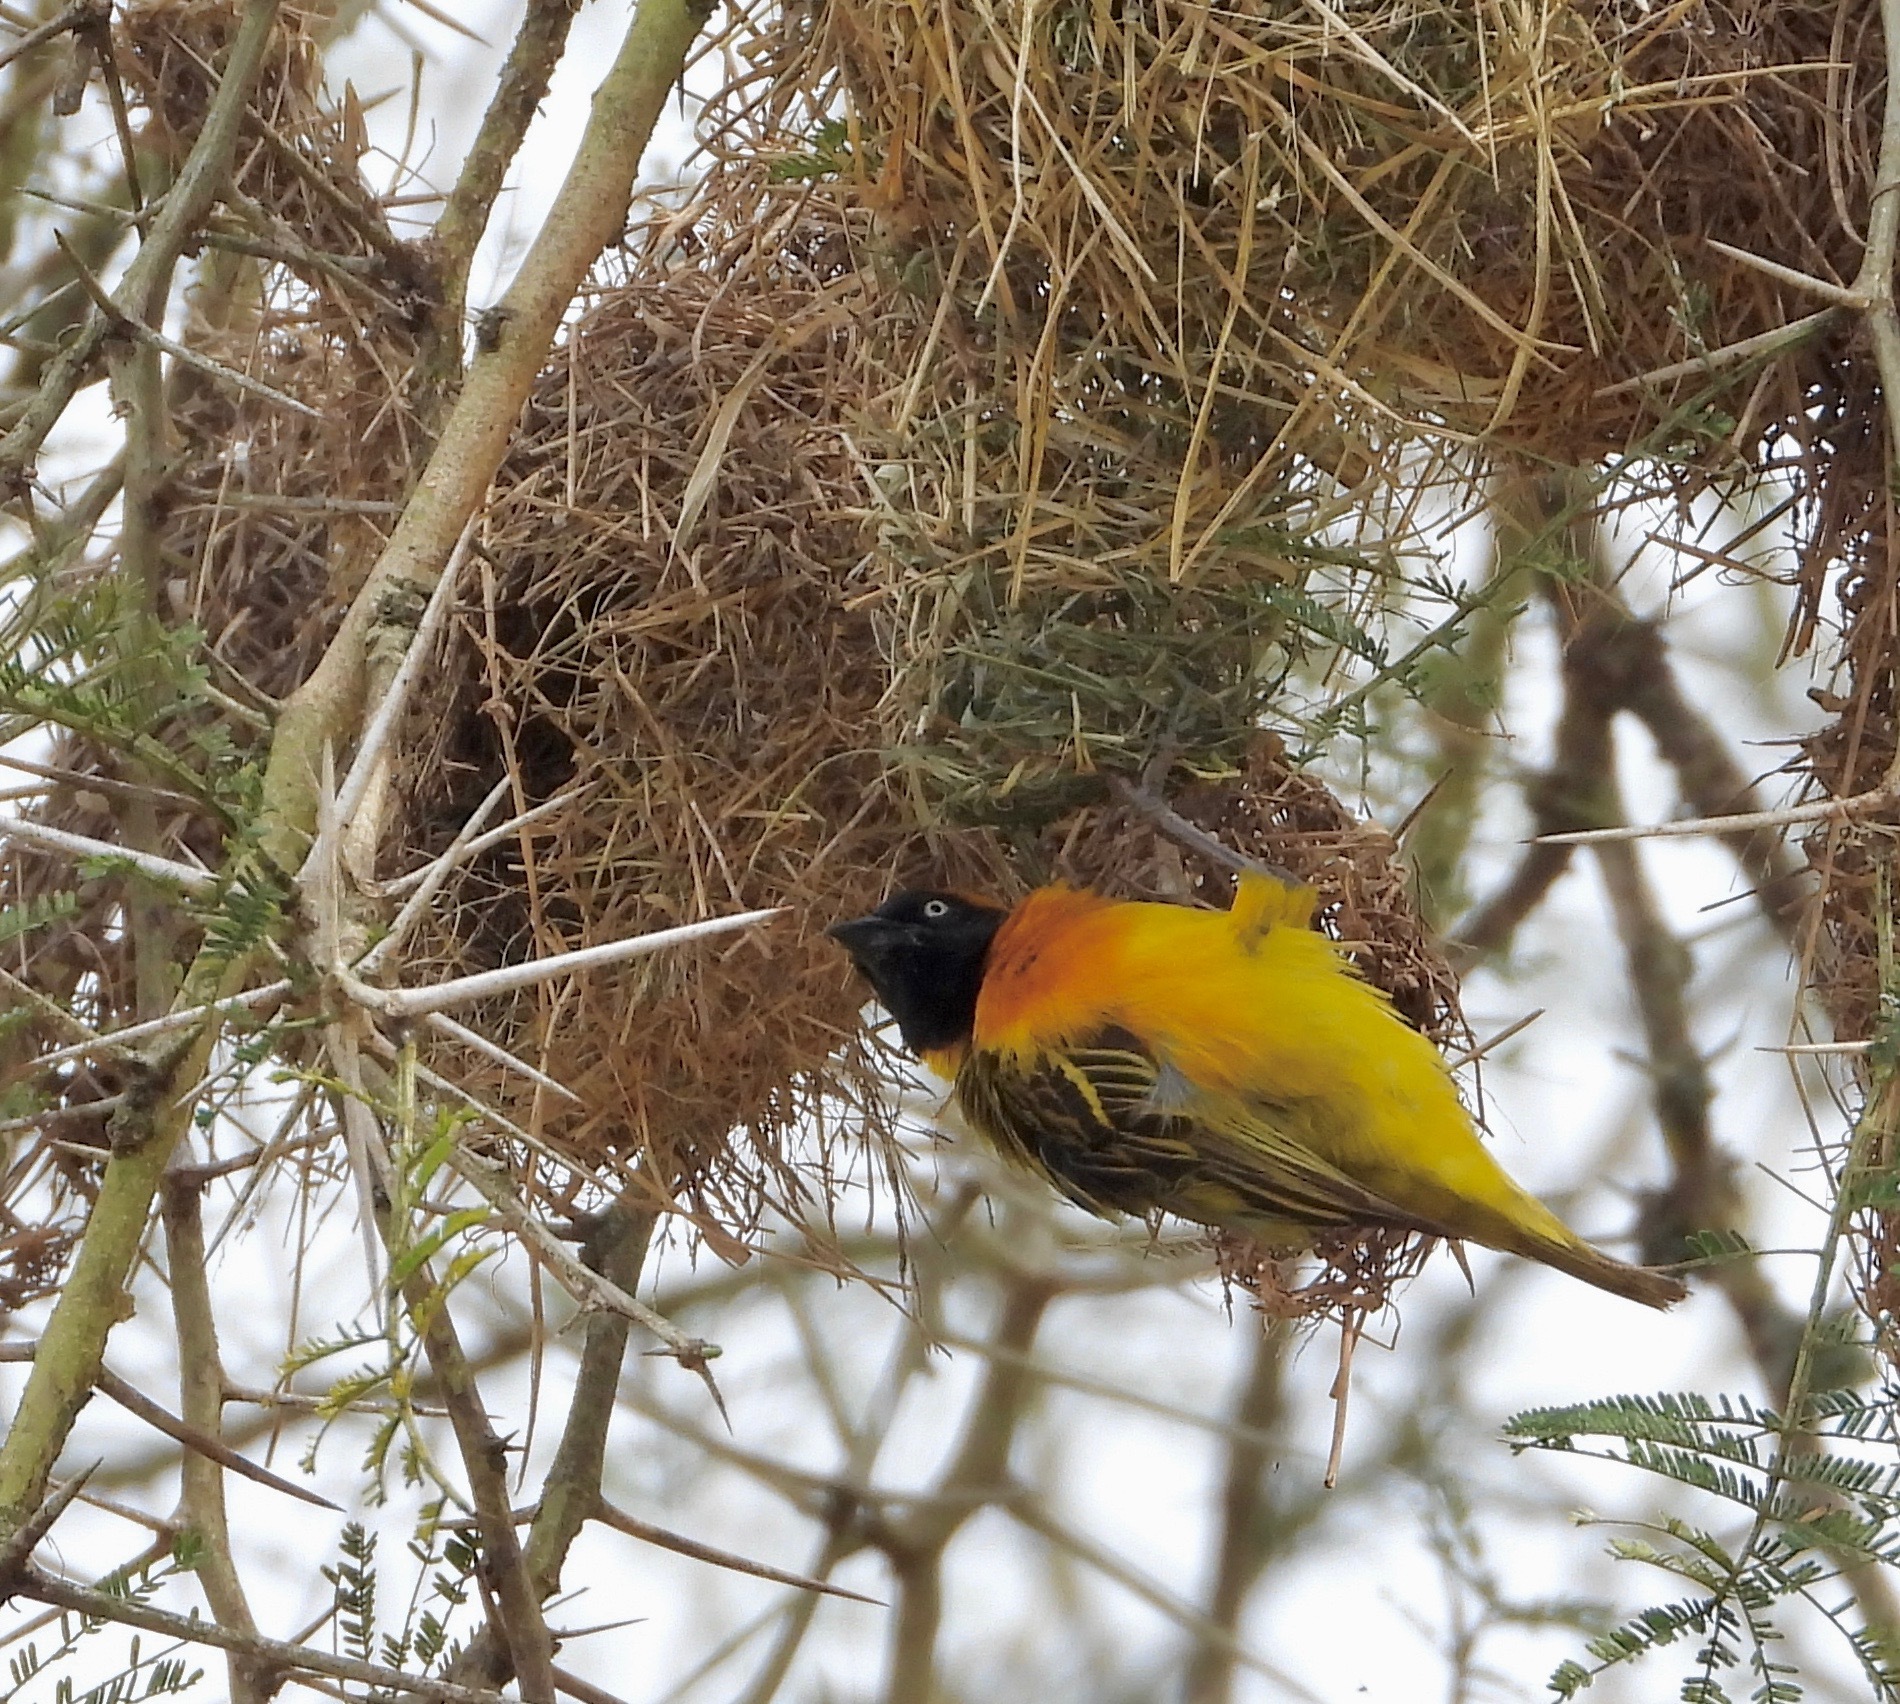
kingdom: Animalia
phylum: Chordata
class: Aves
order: Passeriformes
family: Ploceidae
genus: Ploceus
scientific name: Ploceus intermedius
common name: Lesser masked weaver
